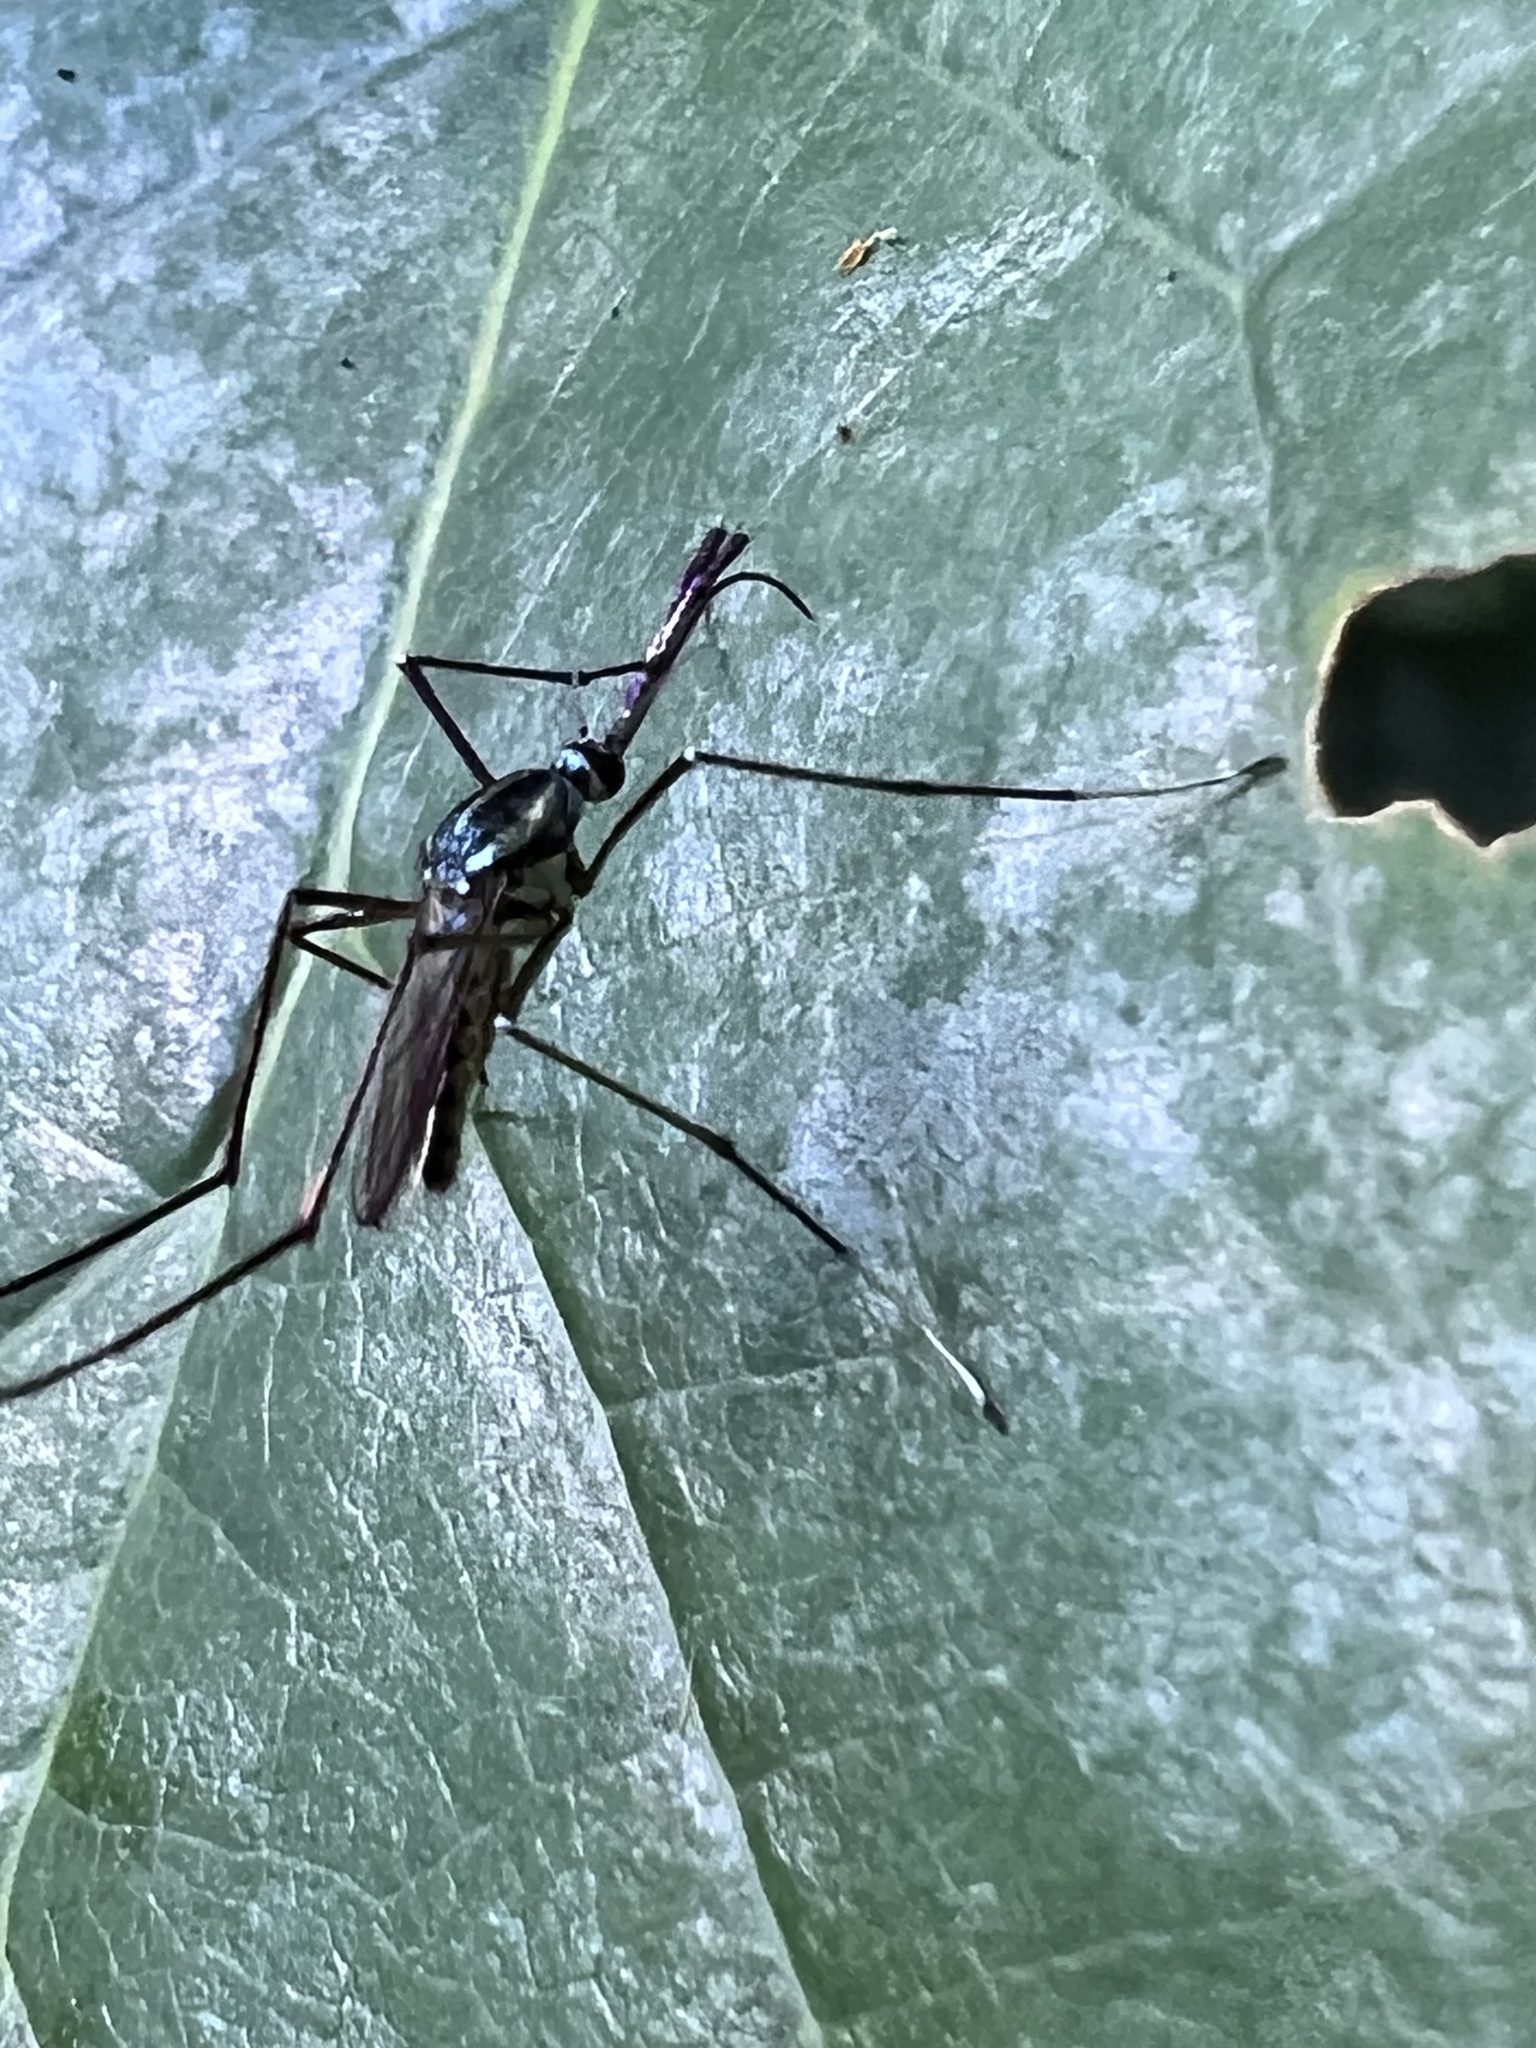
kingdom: Animalia
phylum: Arthropoda
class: Insecta
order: Diptera
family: Culicidae
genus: Toxorhynchites
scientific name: Toxorhynchites rutilus
